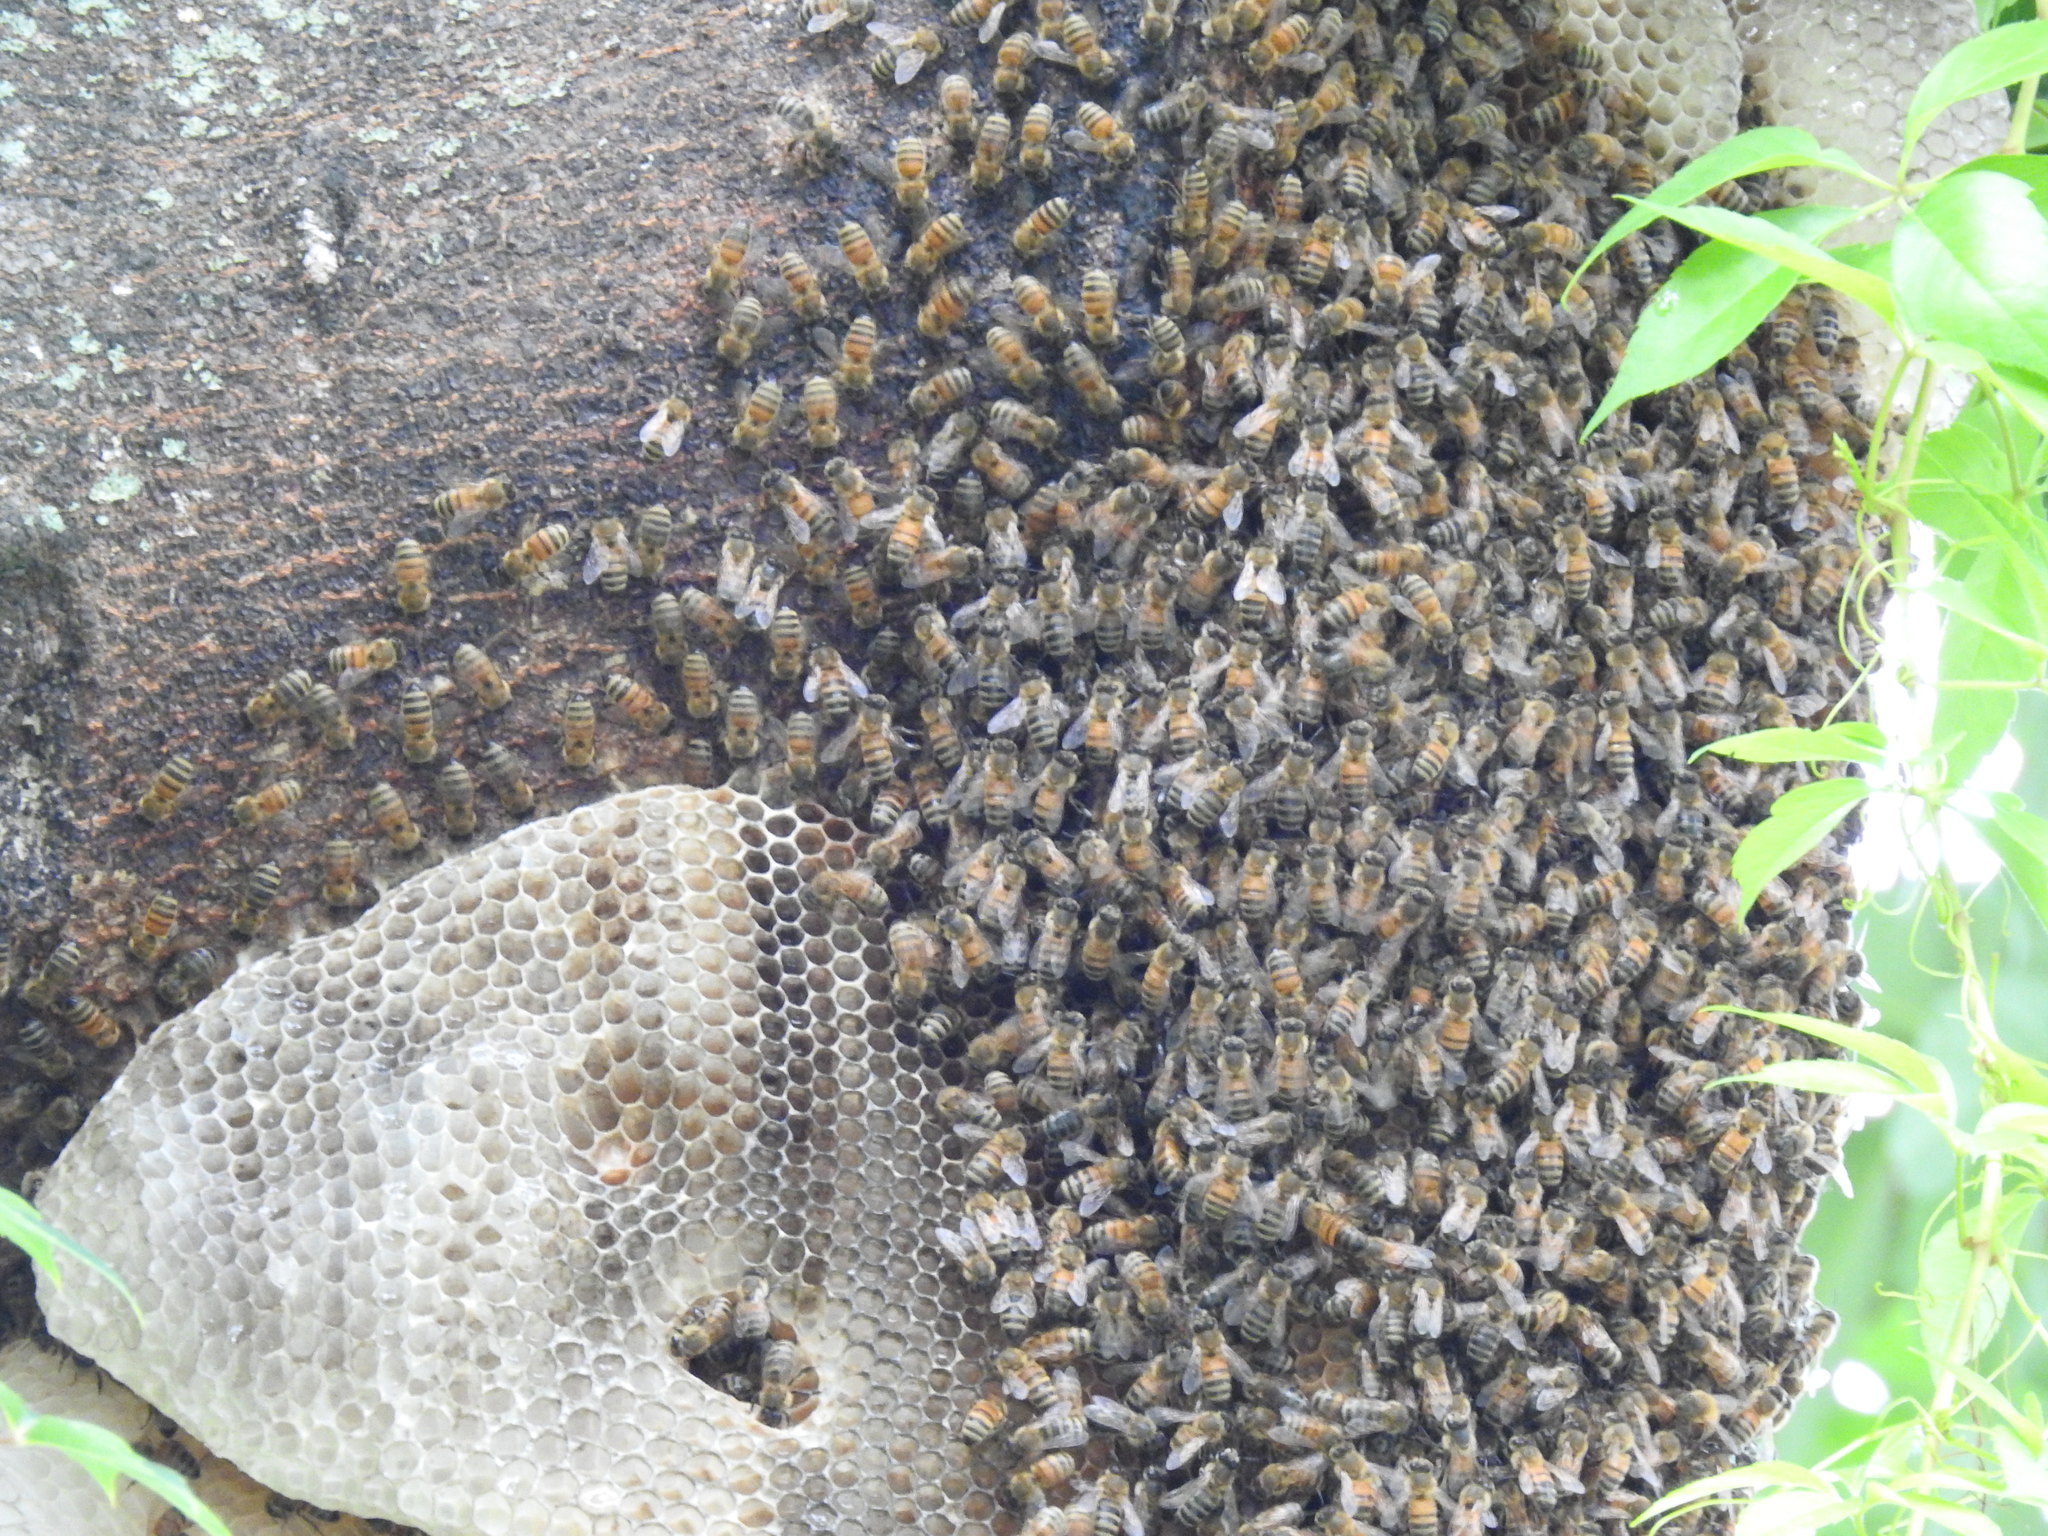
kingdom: Animalia
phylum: Arthropoda
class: Insecta
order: Hymenoptera
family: Apidae
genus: Apis
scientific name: Apis mellifera
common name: Honey bee
